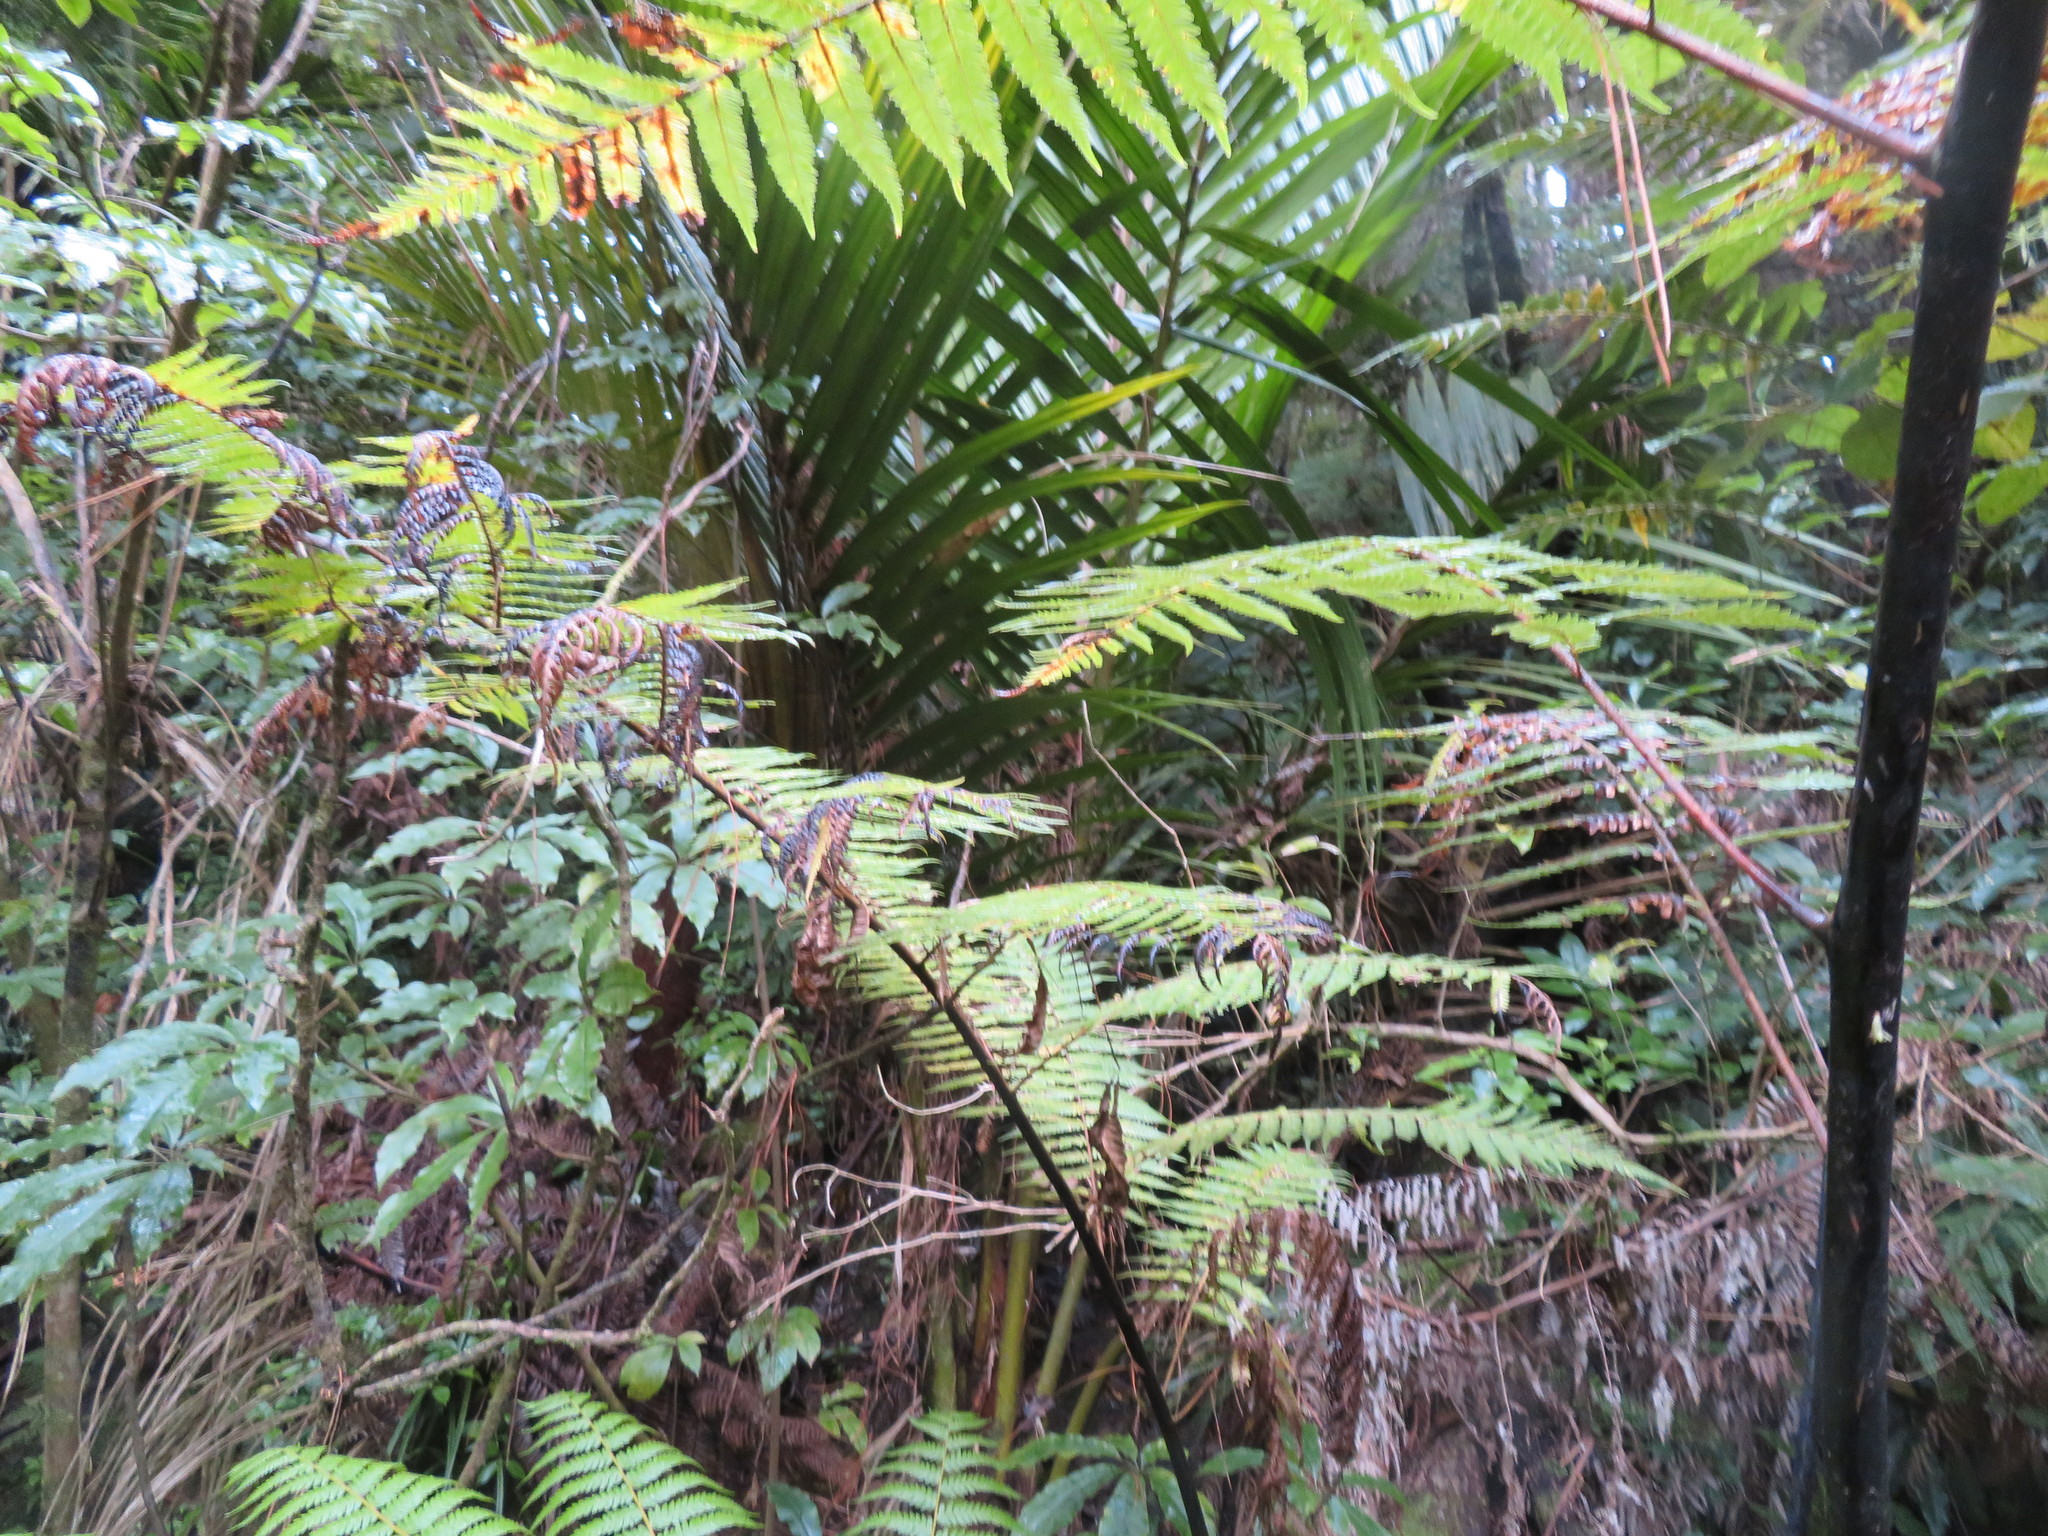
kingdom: Plantae
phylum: Tracheophyta
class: Liliopsida
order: Arecales
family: Arecaceae
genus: Rhopalostylis
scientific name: Rhopalostylis sapida
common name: Feather-duster palm
